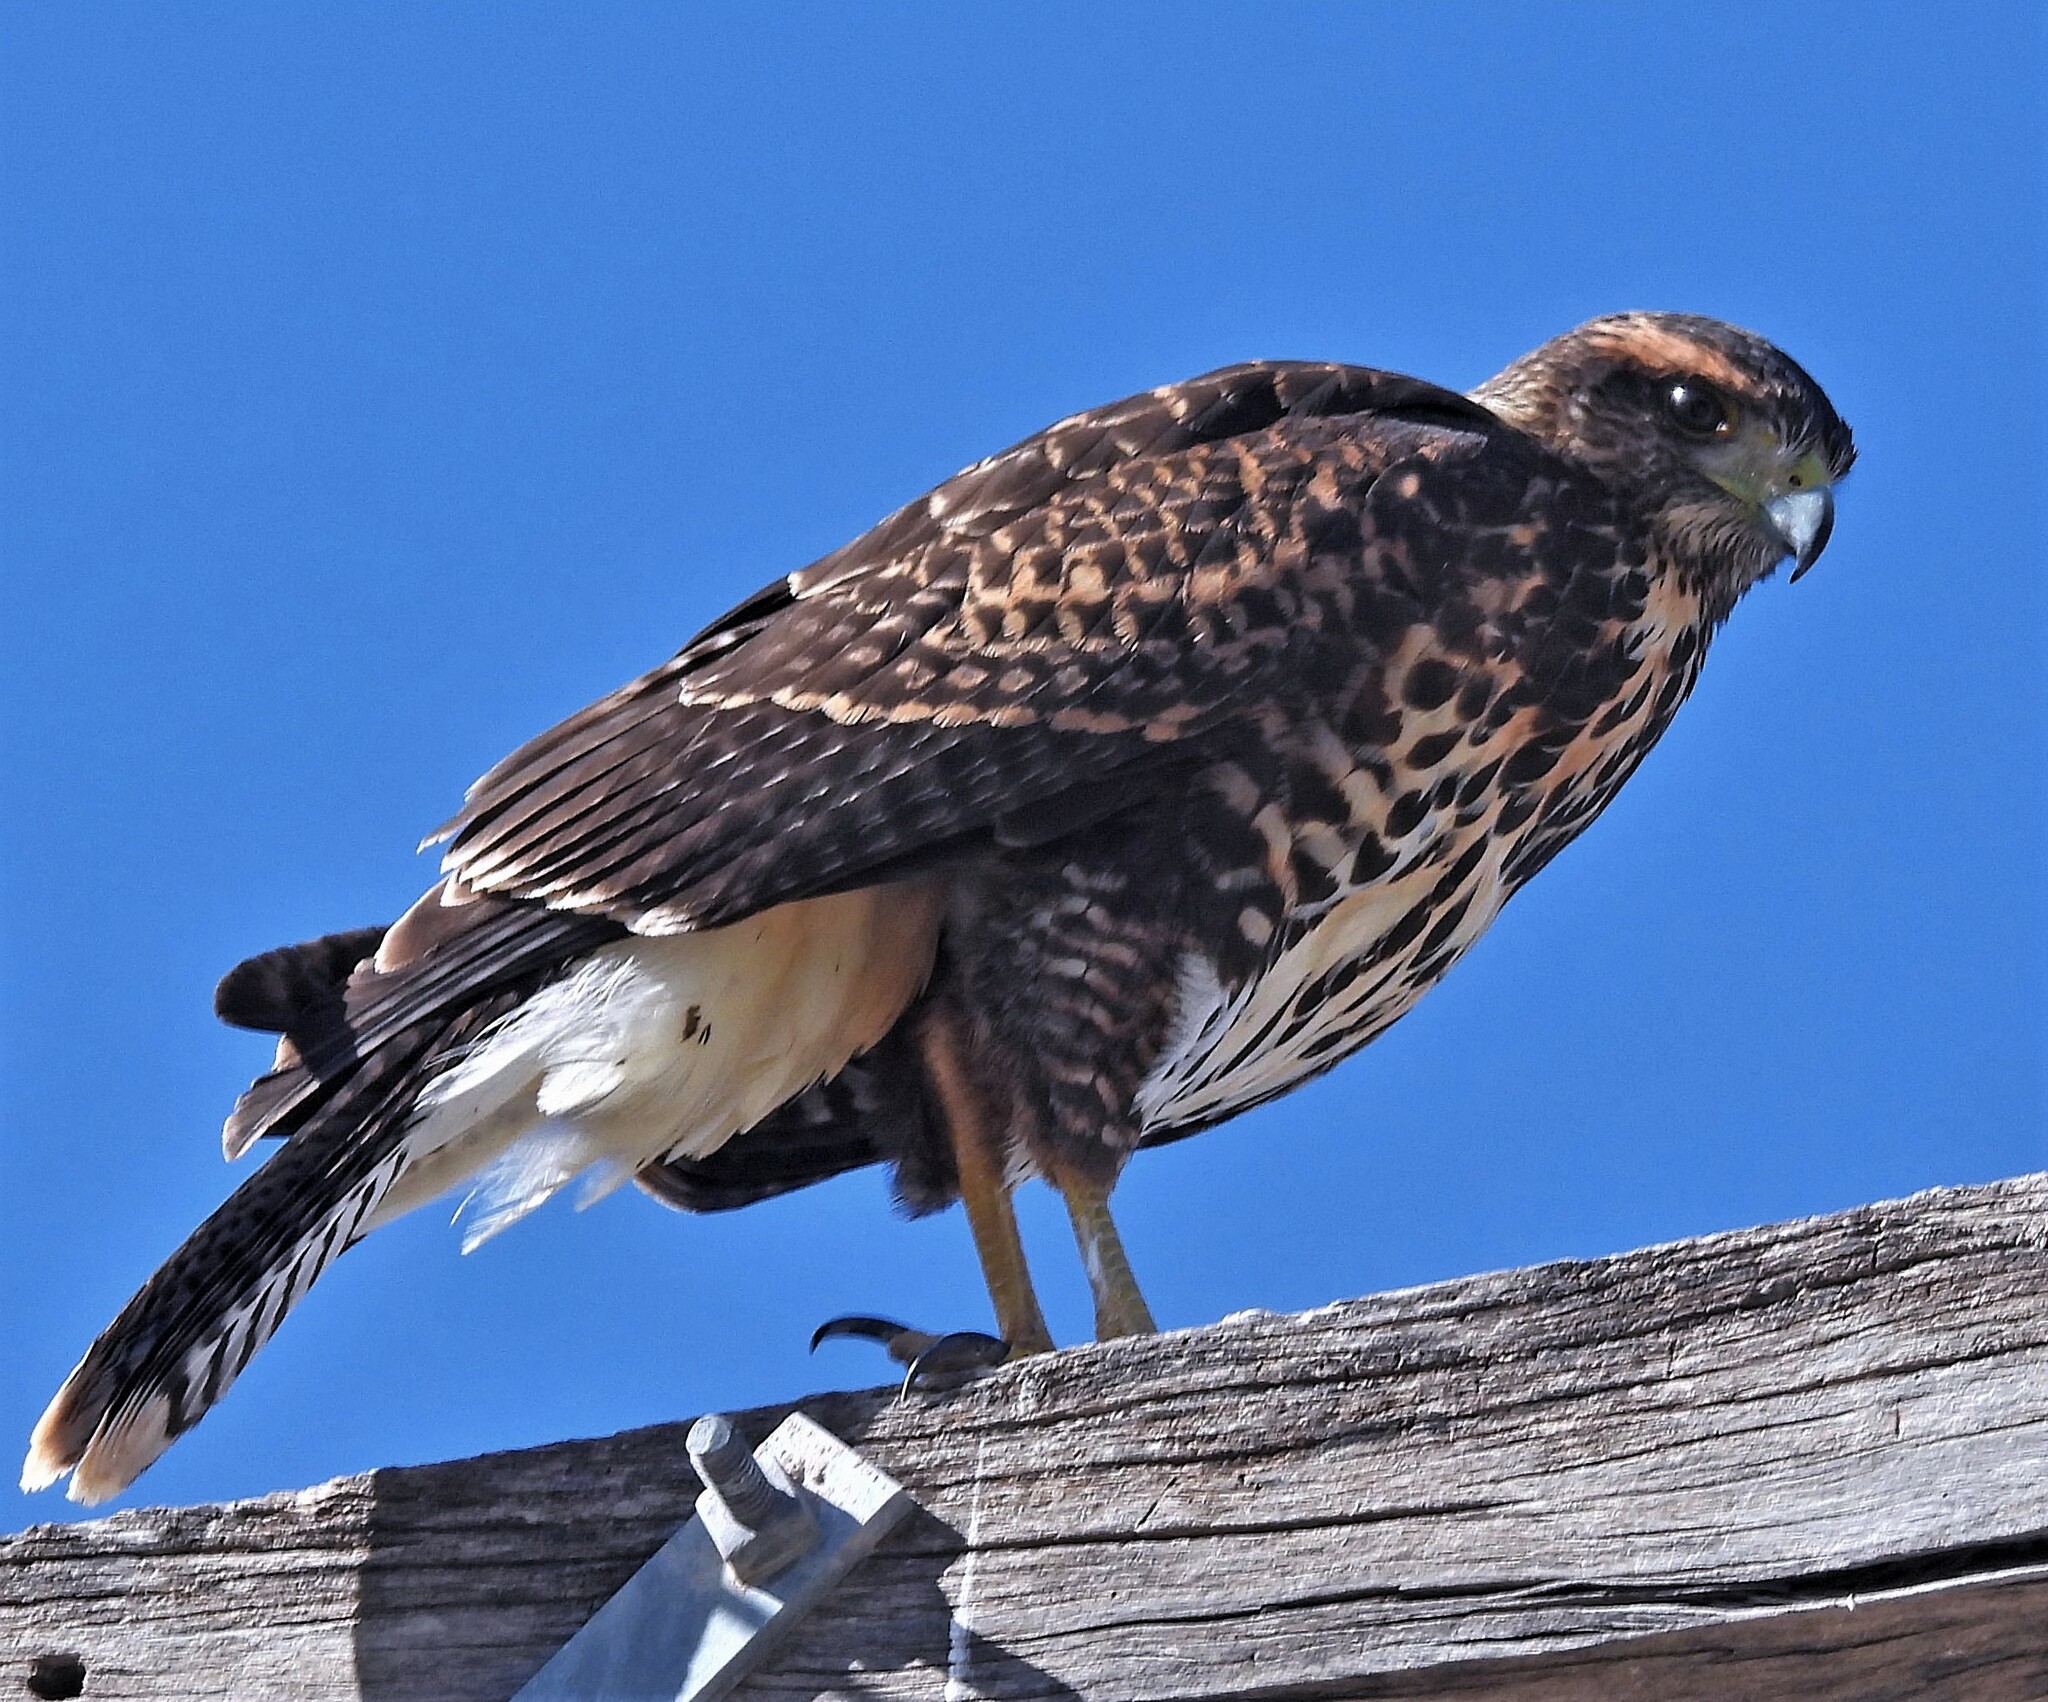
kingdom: Animalia
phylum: Chordata
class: Aves
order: Accipitriformes
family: Accipitridae
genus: Parabuteo
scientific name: Parabuteo unicinctus
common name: Harris's hawk
